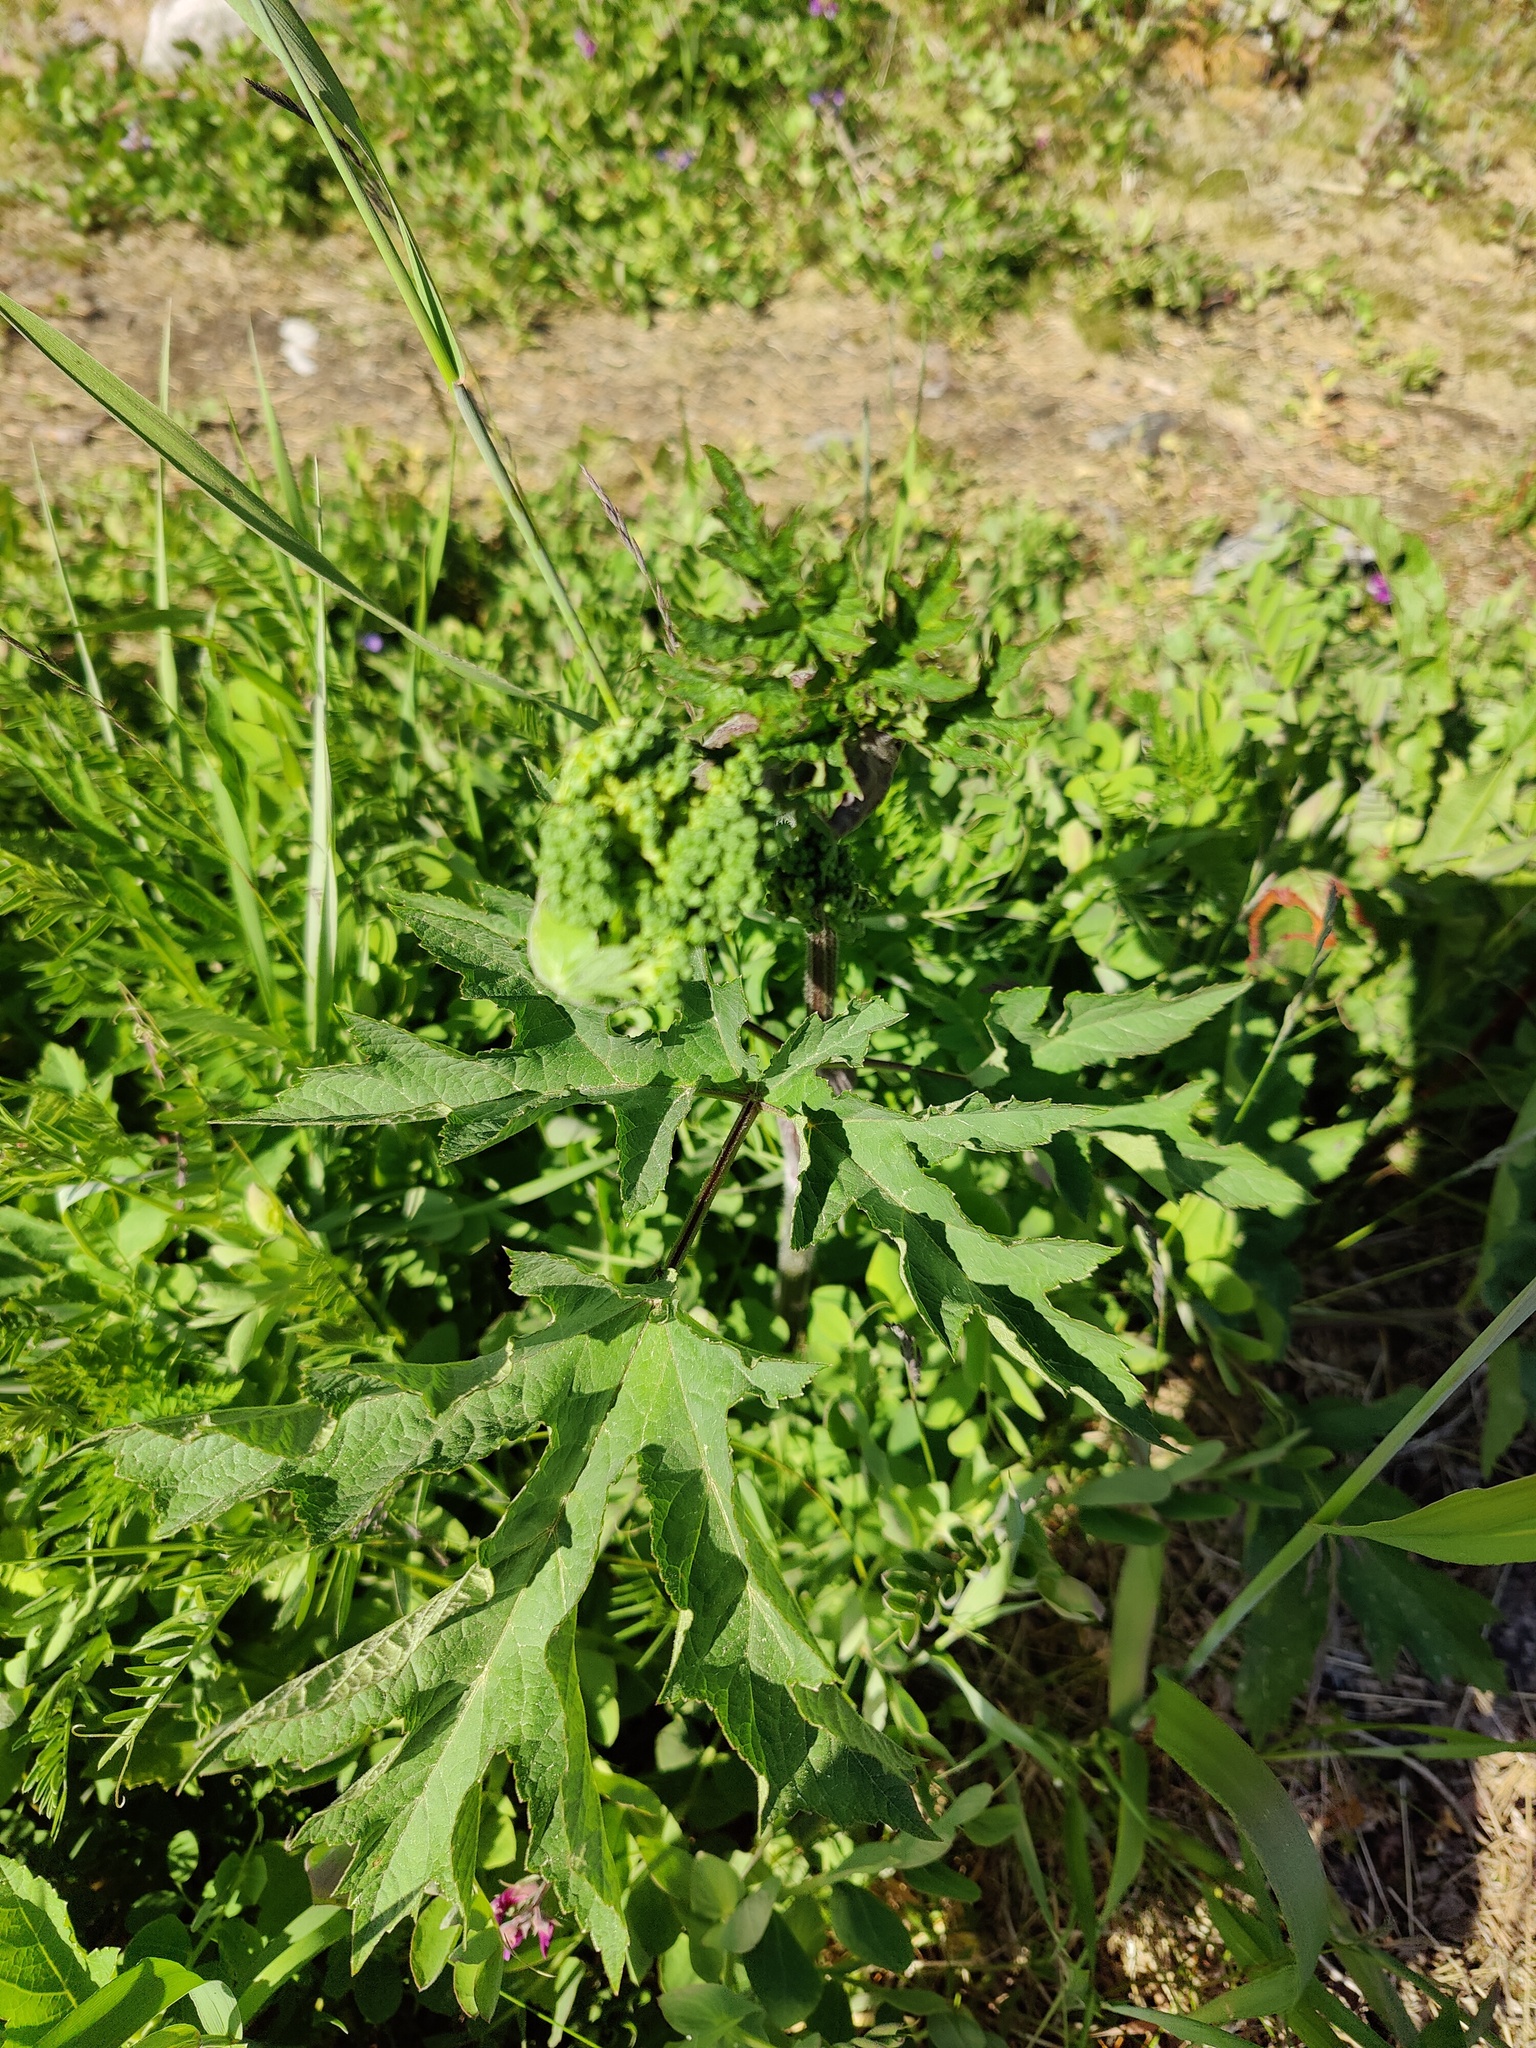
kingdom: Plantae
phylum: Tracheophyta
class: Magnoliopsida
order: Apiales
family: Apiaceae
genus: Heracleum
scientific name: Heracleum sphondylium
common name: Hogweed
